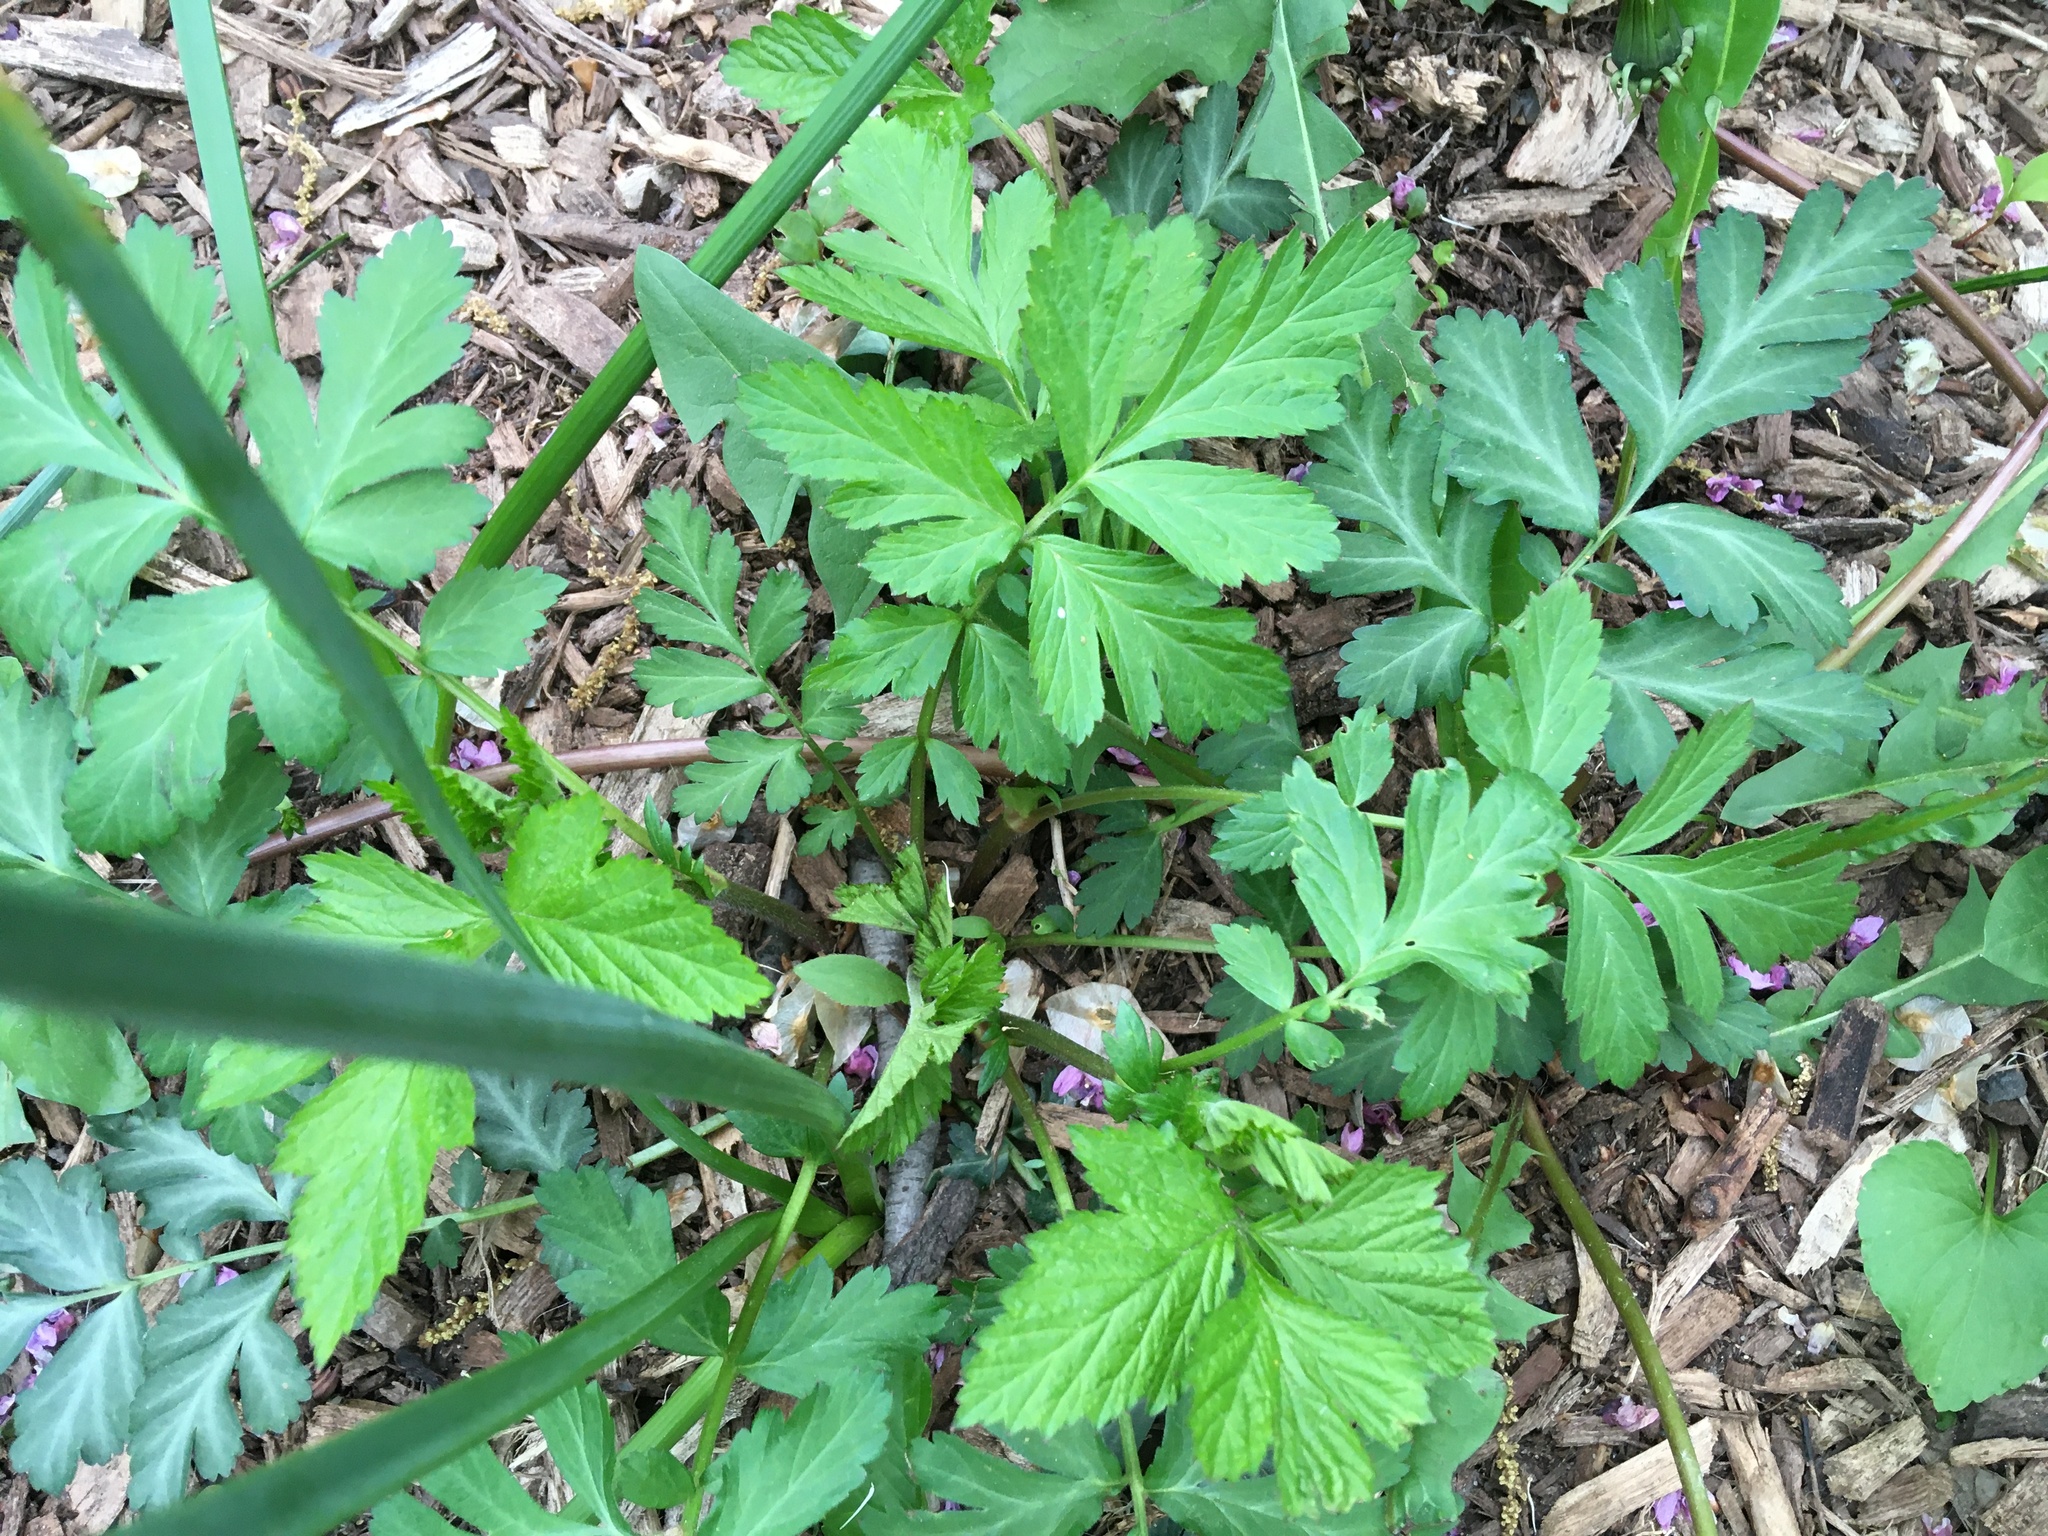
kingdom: Plantae
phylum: Tracheophyta
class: Magnoliopsida
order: Rosales
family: Rosaceae
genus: Geum
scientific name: Geum canadense
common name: White avens
